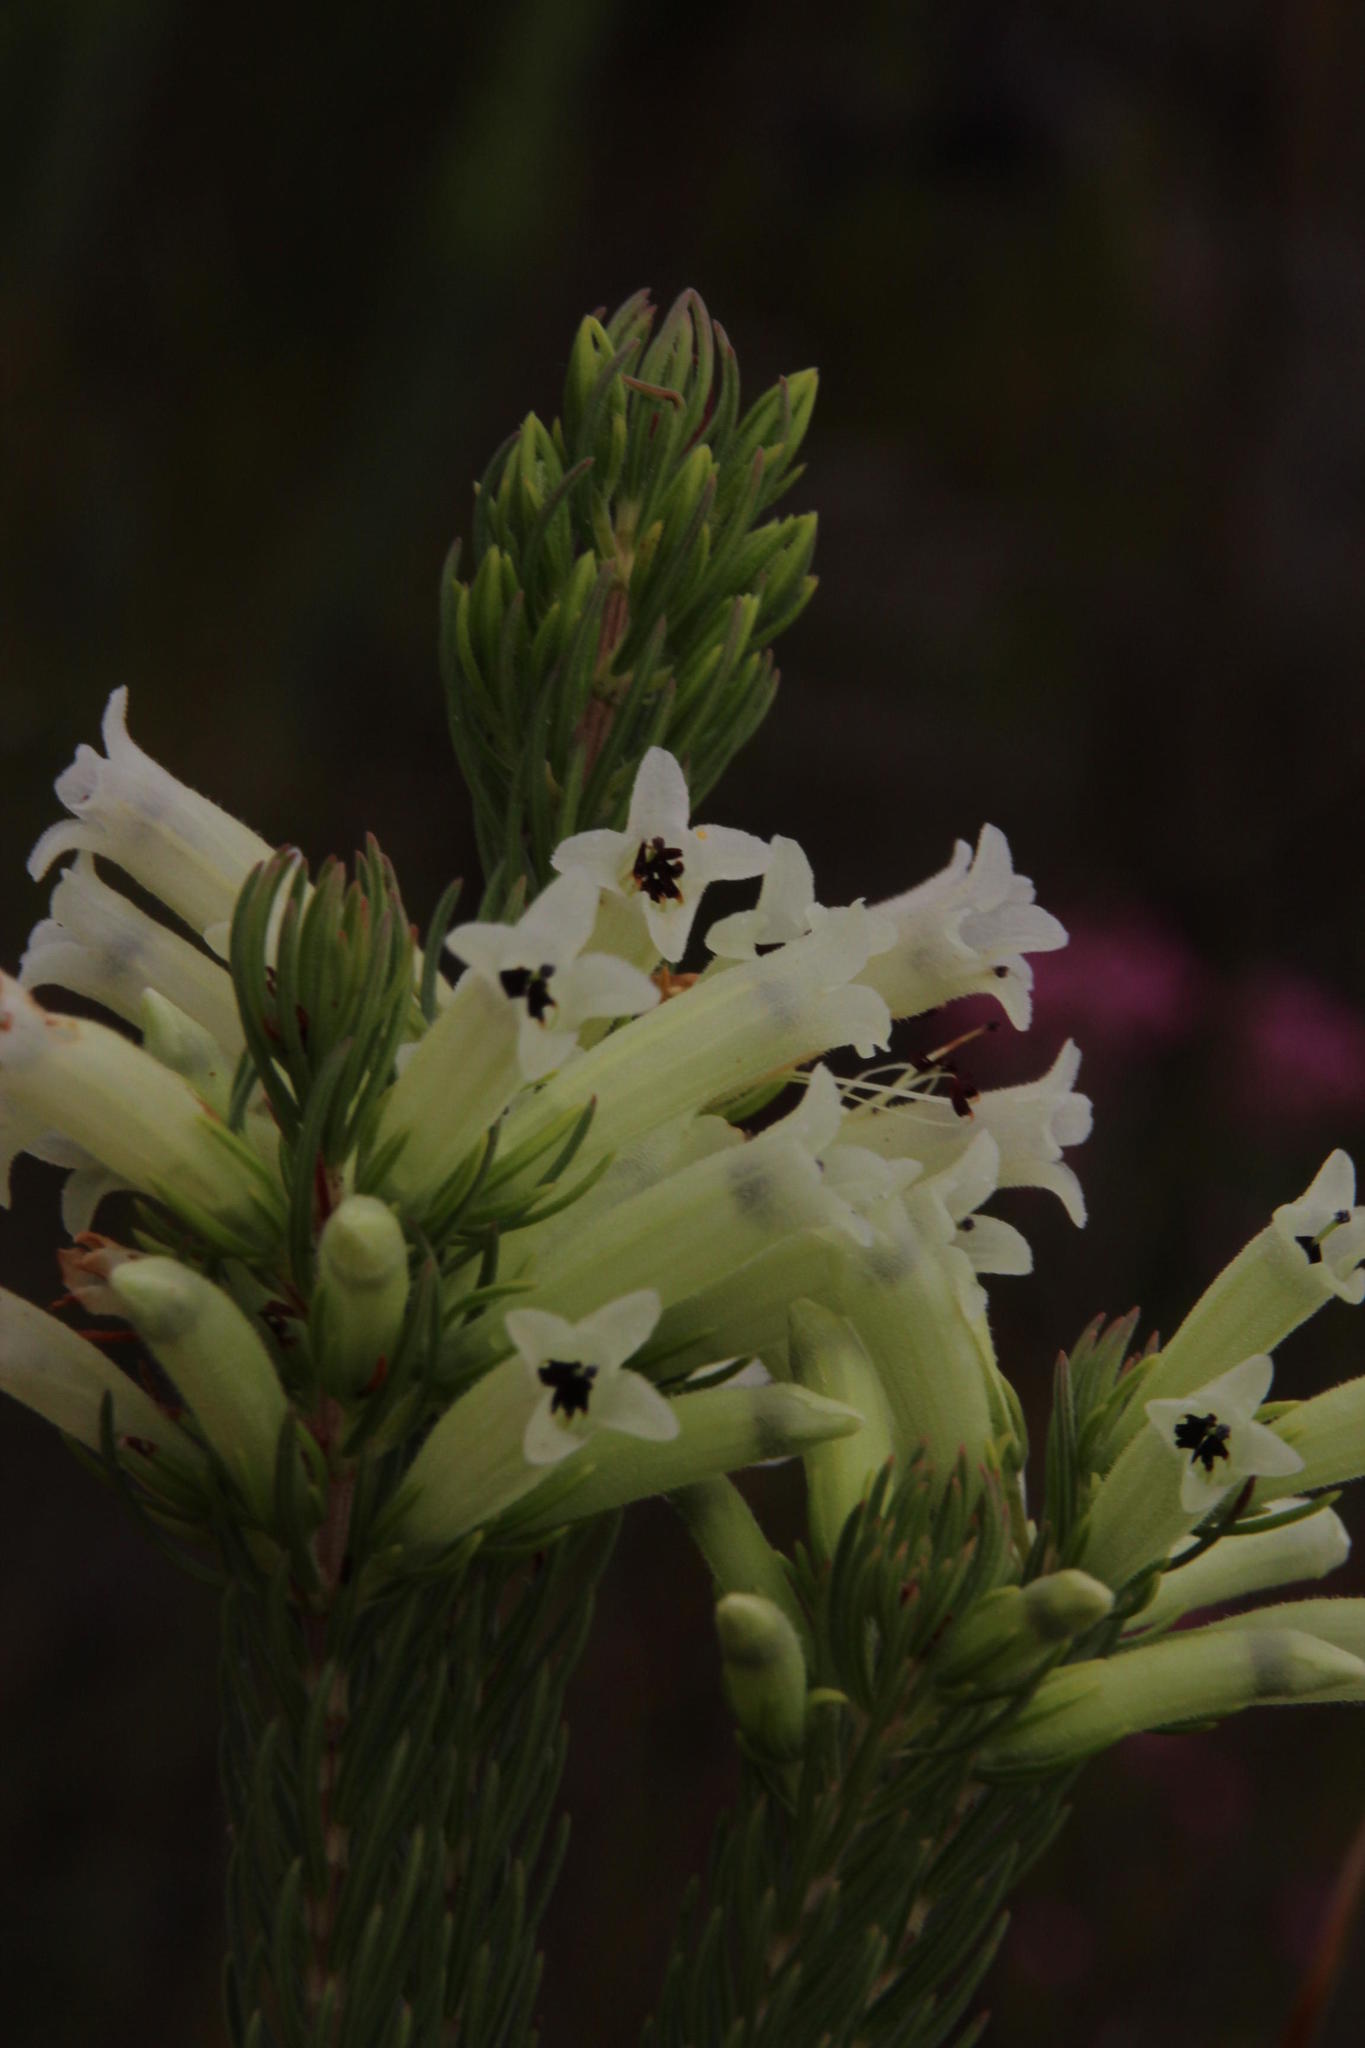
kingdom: Plantae
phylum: Tracheophyta
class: Magnoliopsida
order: Ericales
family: Ericaceae
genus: Erica
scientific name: Erica viscaria
